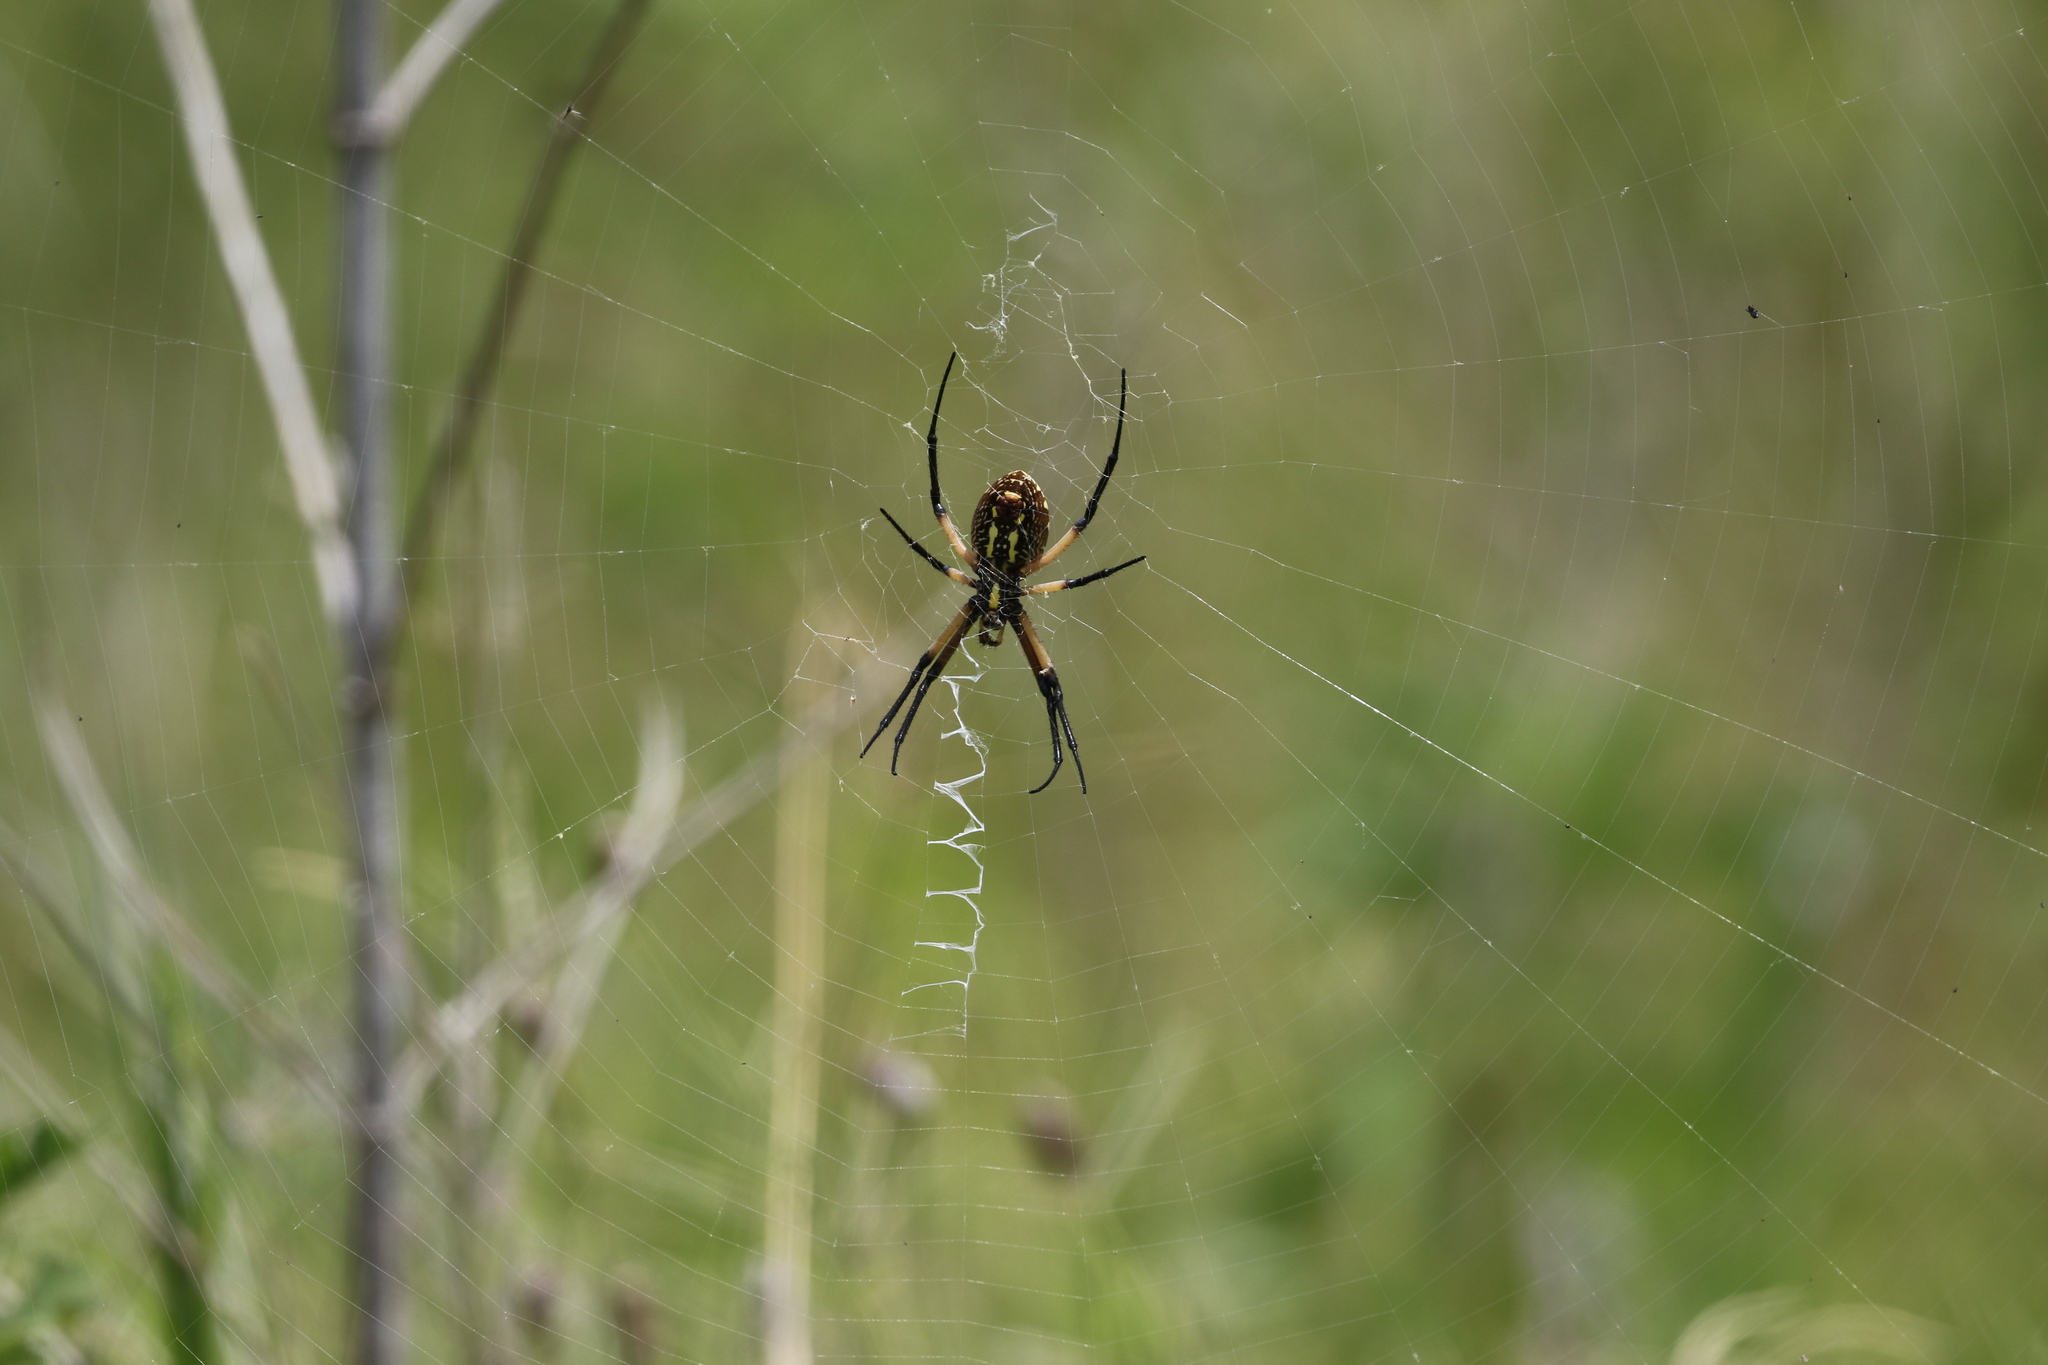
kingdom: Animalia
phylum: Arthropoda
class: Arachnida
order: Araneae
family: Araneidae
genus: Argiope
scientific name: Argiope aurantia
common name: Orb weavers
